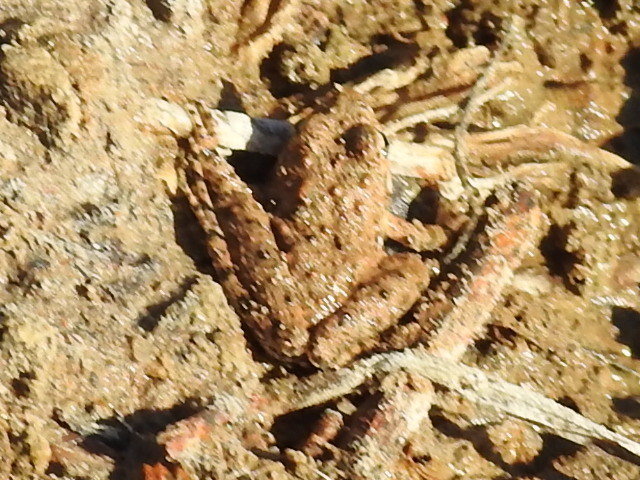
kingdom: Animalia
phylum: Chordata
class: Amphibia
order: Anura
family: Hylidae
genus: Acris
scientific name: Acris blanchardi
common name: Blanchard's cricket frog
